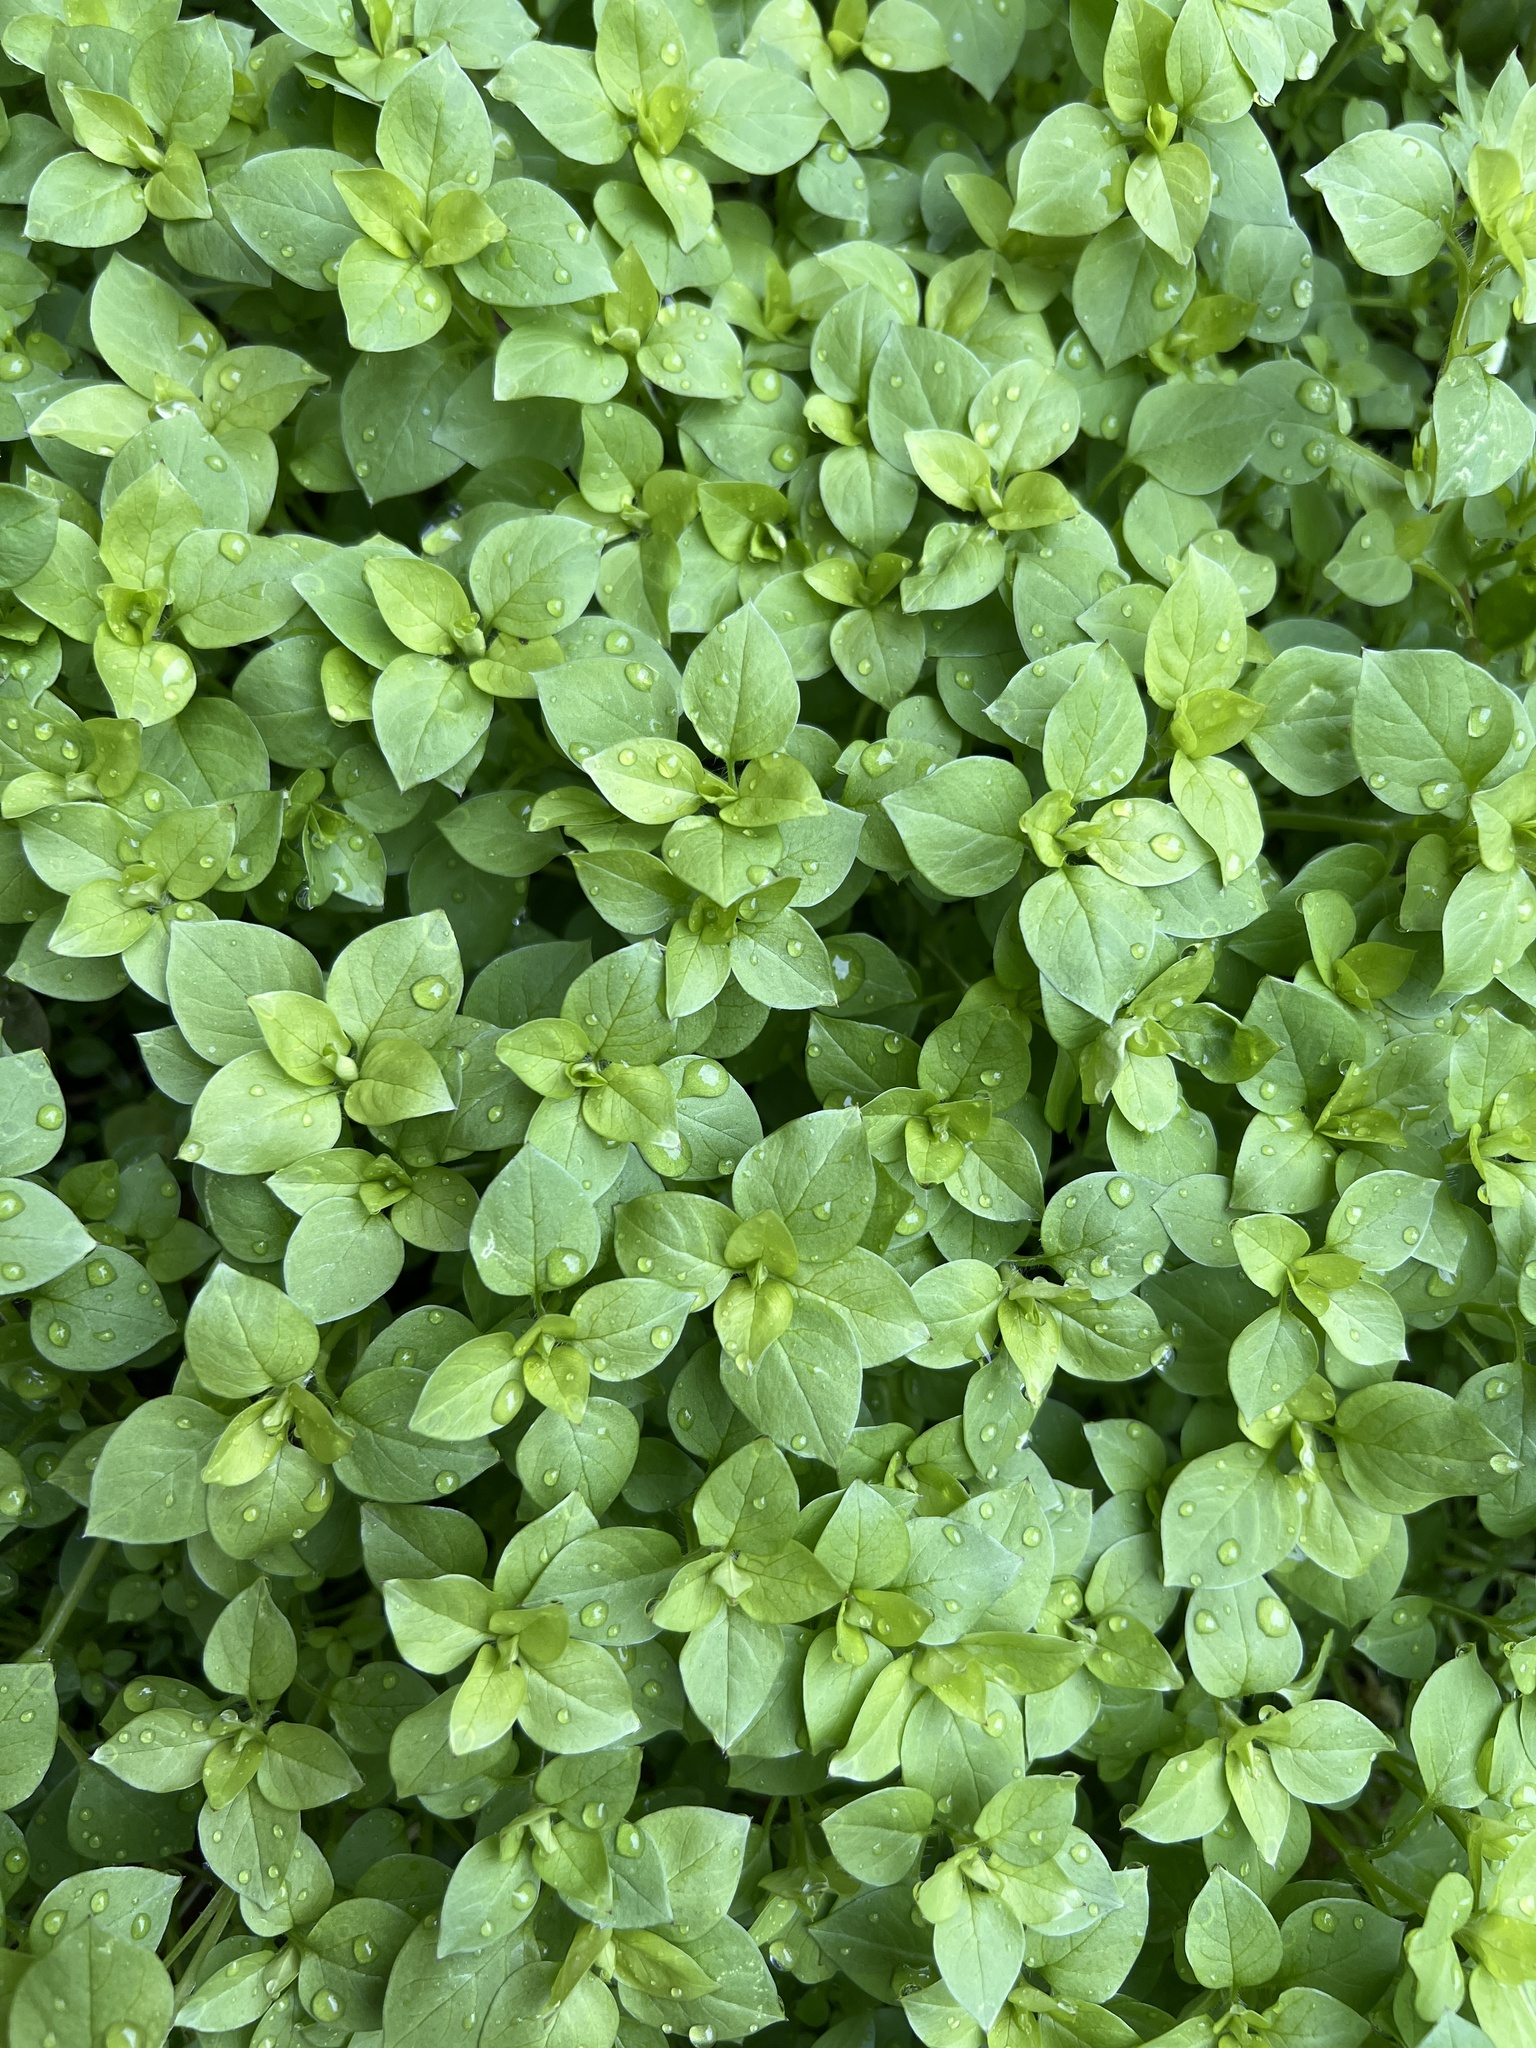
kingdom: Plantae
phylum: Tracheophyta
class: Magnoliopsida
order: Caryophyllales
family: Caryophyllaceae
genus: Stellaria
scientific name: Stellaria media
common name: Common chickweed
